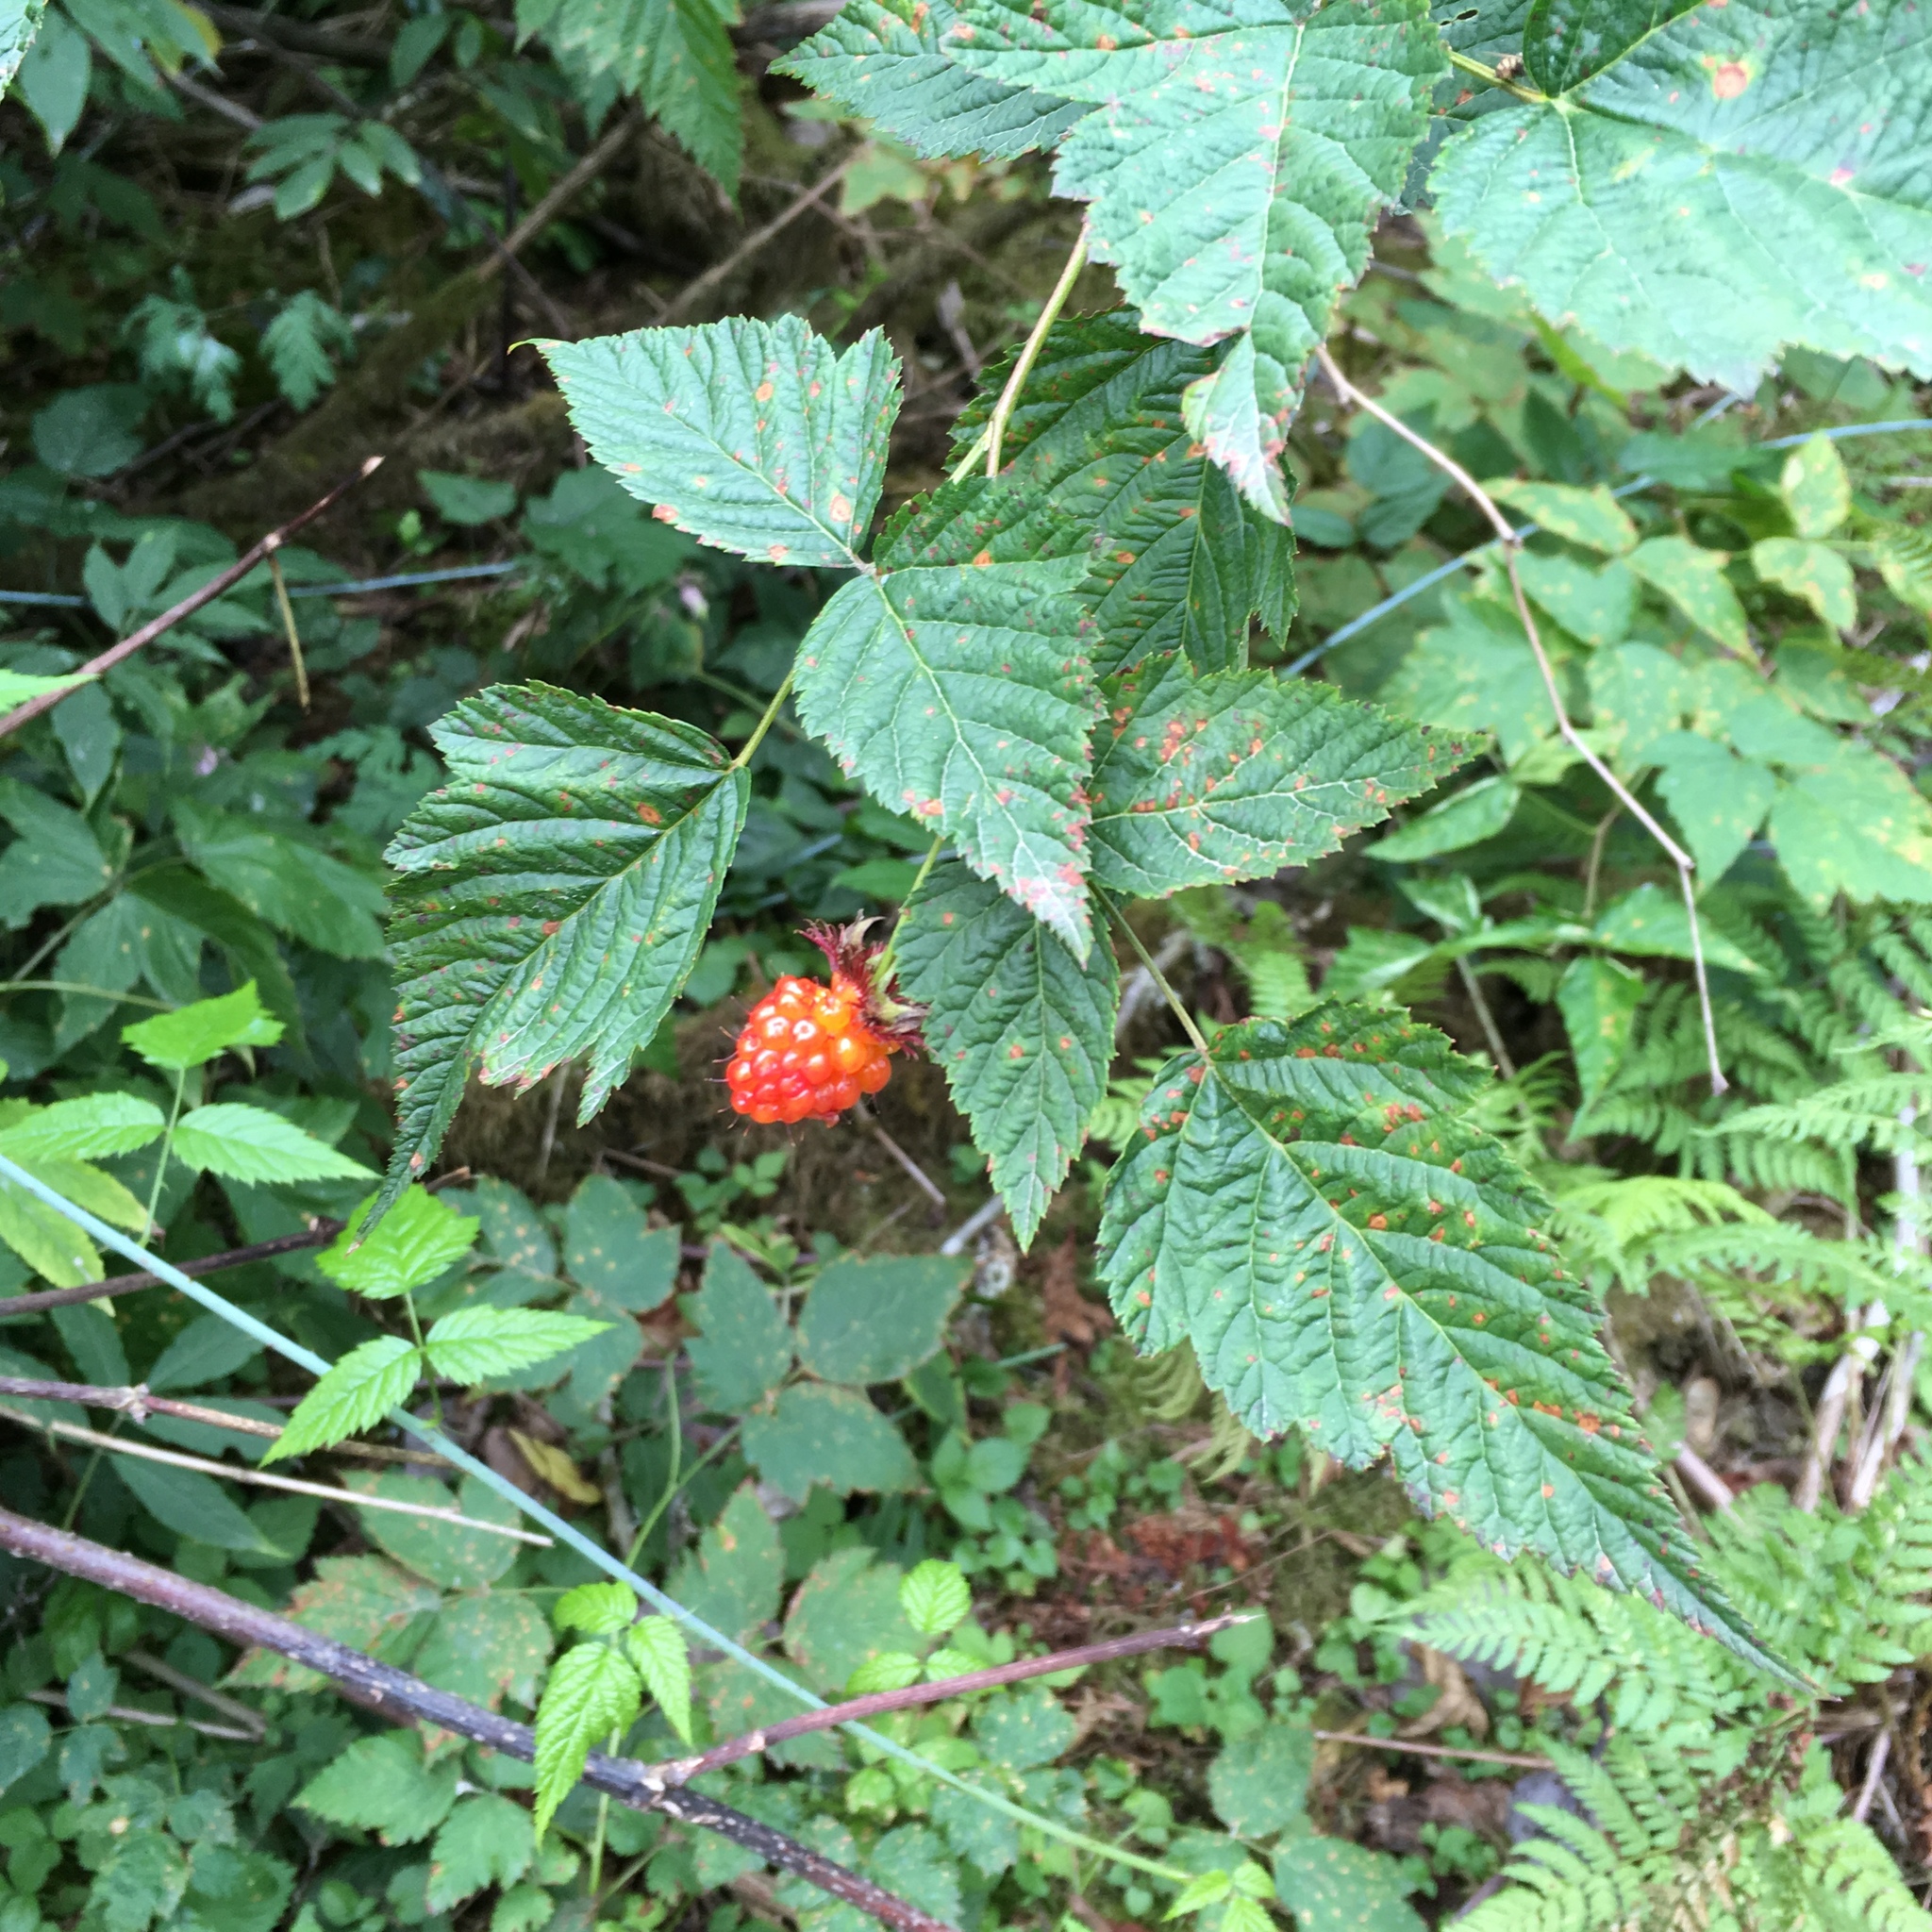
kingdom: Plantae
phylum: Tracheophyta
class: Magnoliopsida
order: Rosales
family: Rosaceae
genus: Rubus
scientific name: Rubus spectabilis
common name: Salmonberry
